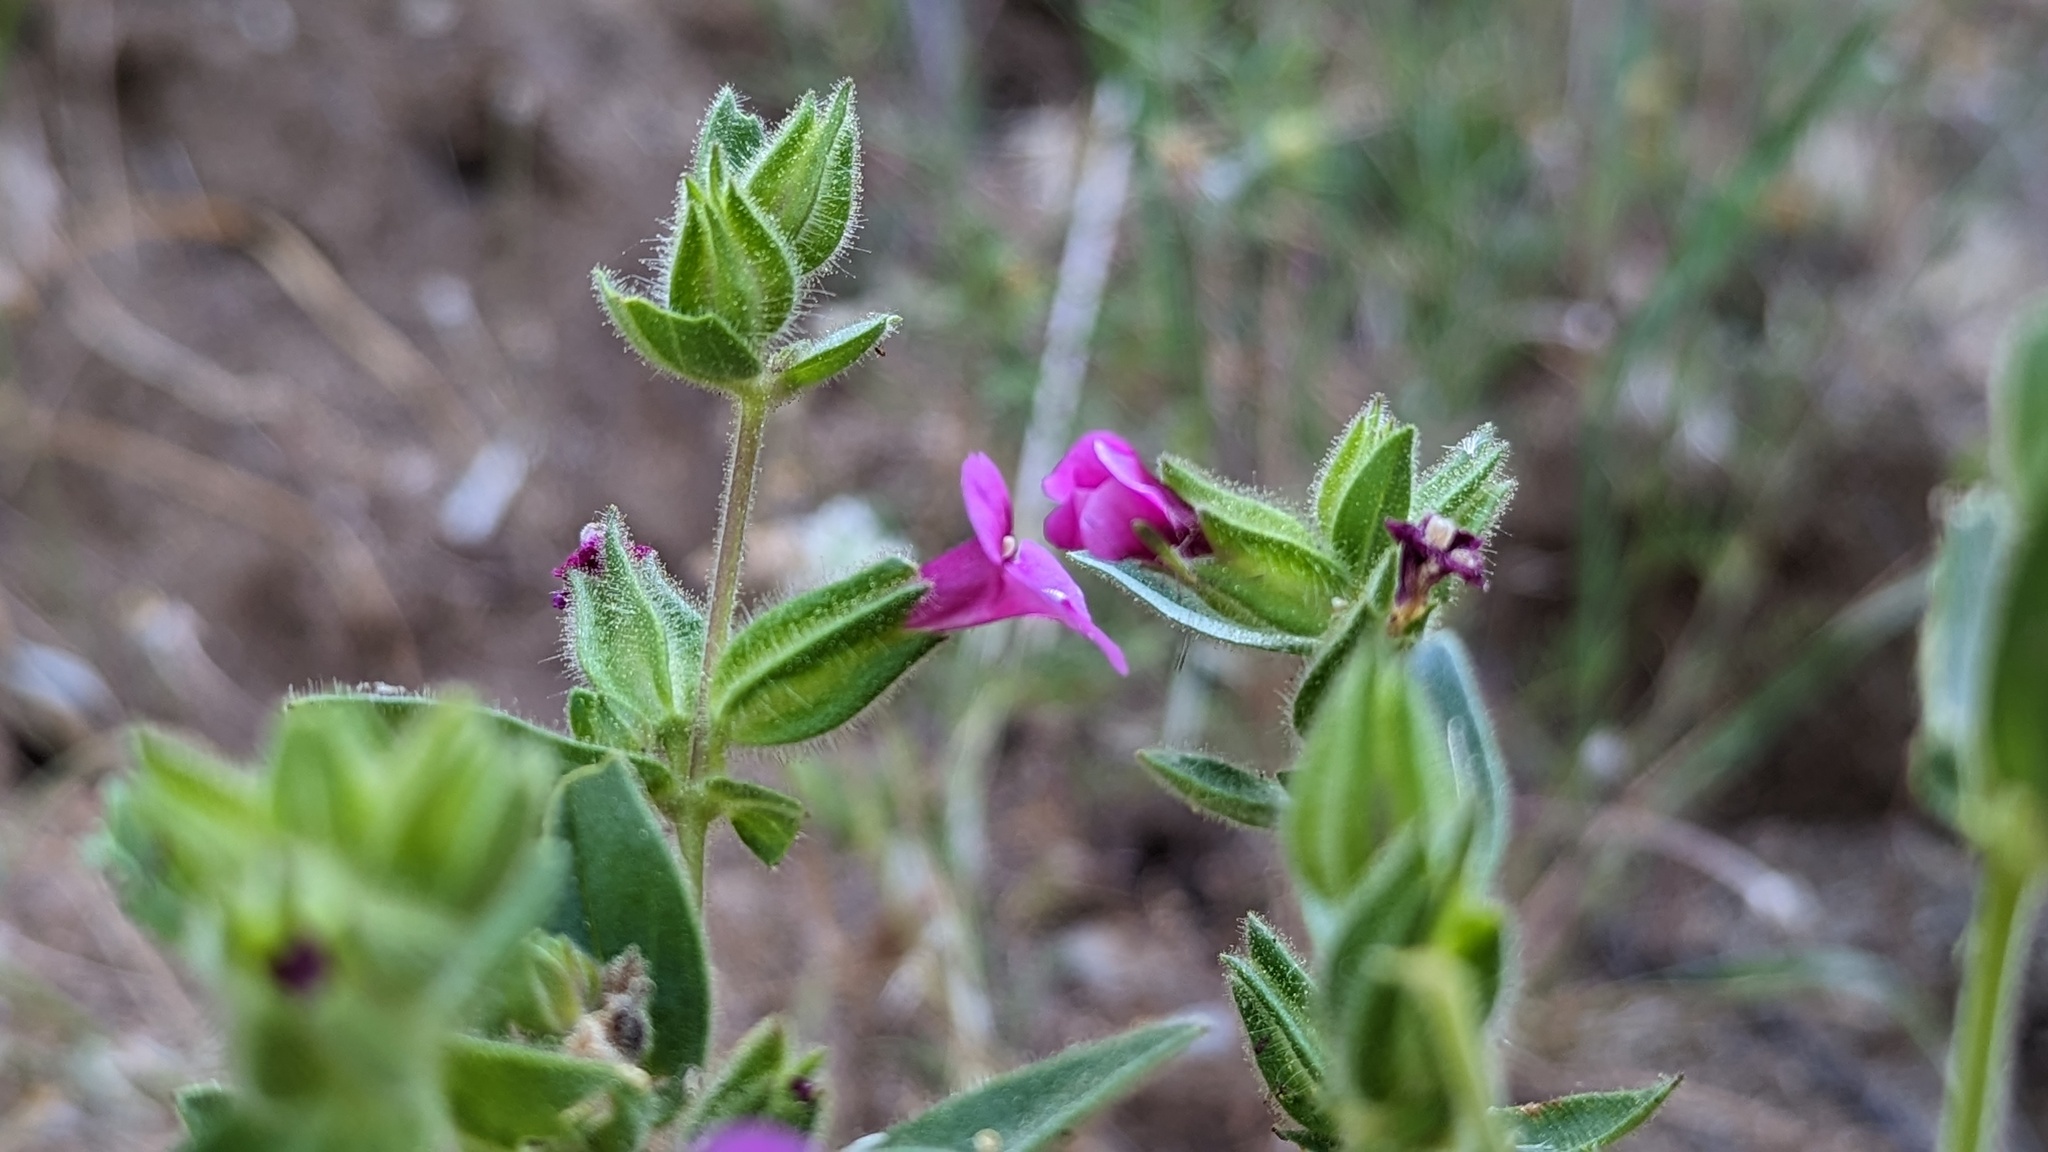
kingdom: Plantae
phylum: Tracheophyta
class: Magnoliopsida
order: Lamiales
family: Phrymaceae
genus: Diplacus
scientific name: Diplacus bolanderi
